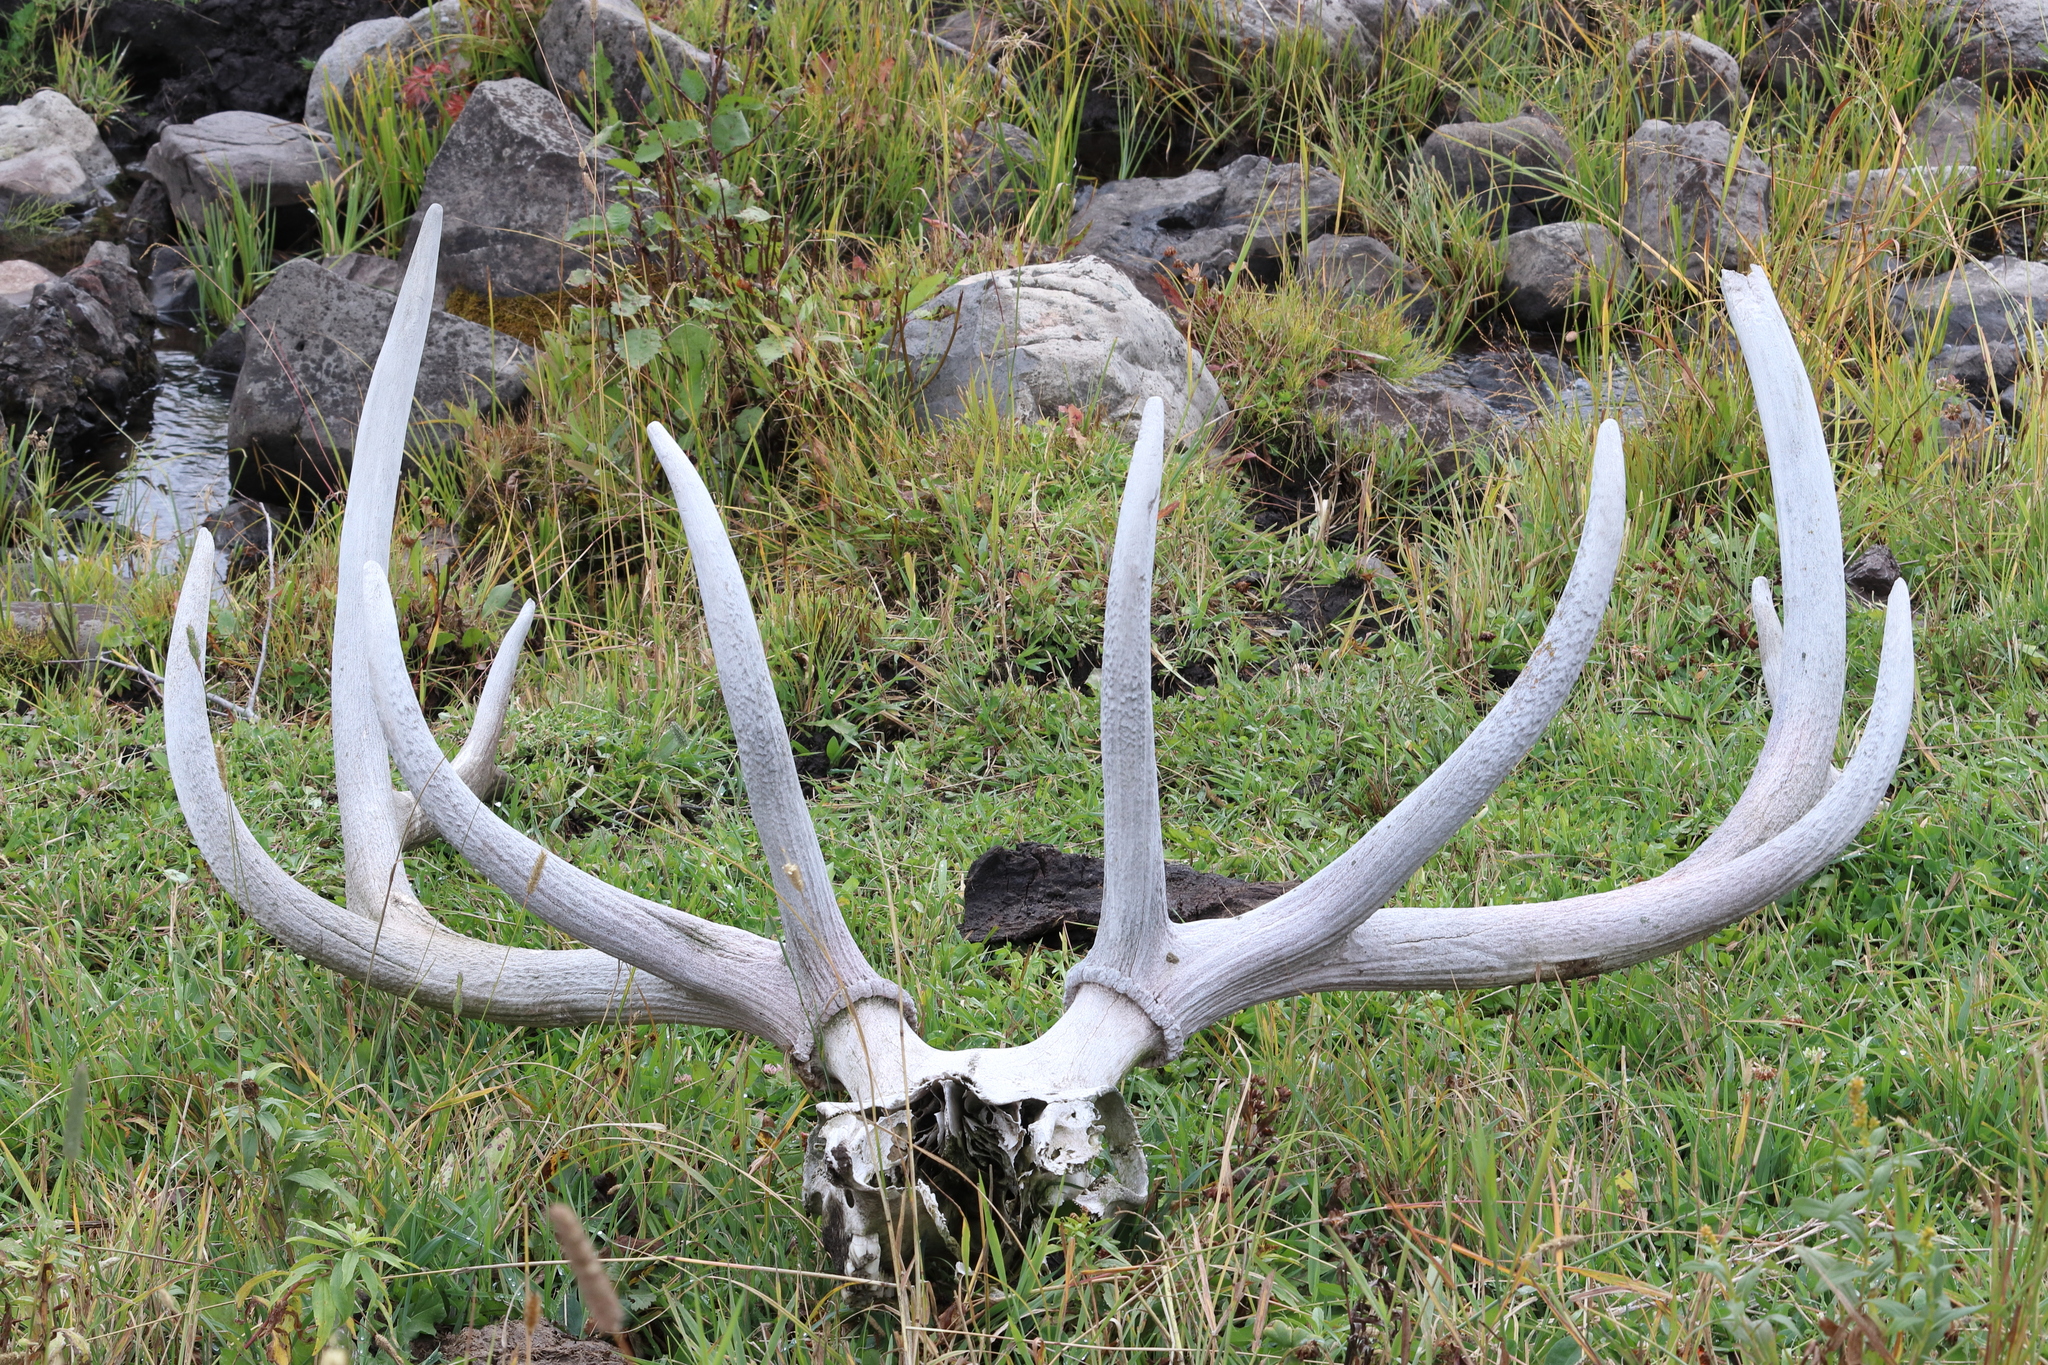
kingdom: Animalia
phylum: Chordata
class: Mammalia
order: Artiodactyla
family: Cervidae
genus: Cervus
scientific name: Cervus elaphus
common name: Red deer
